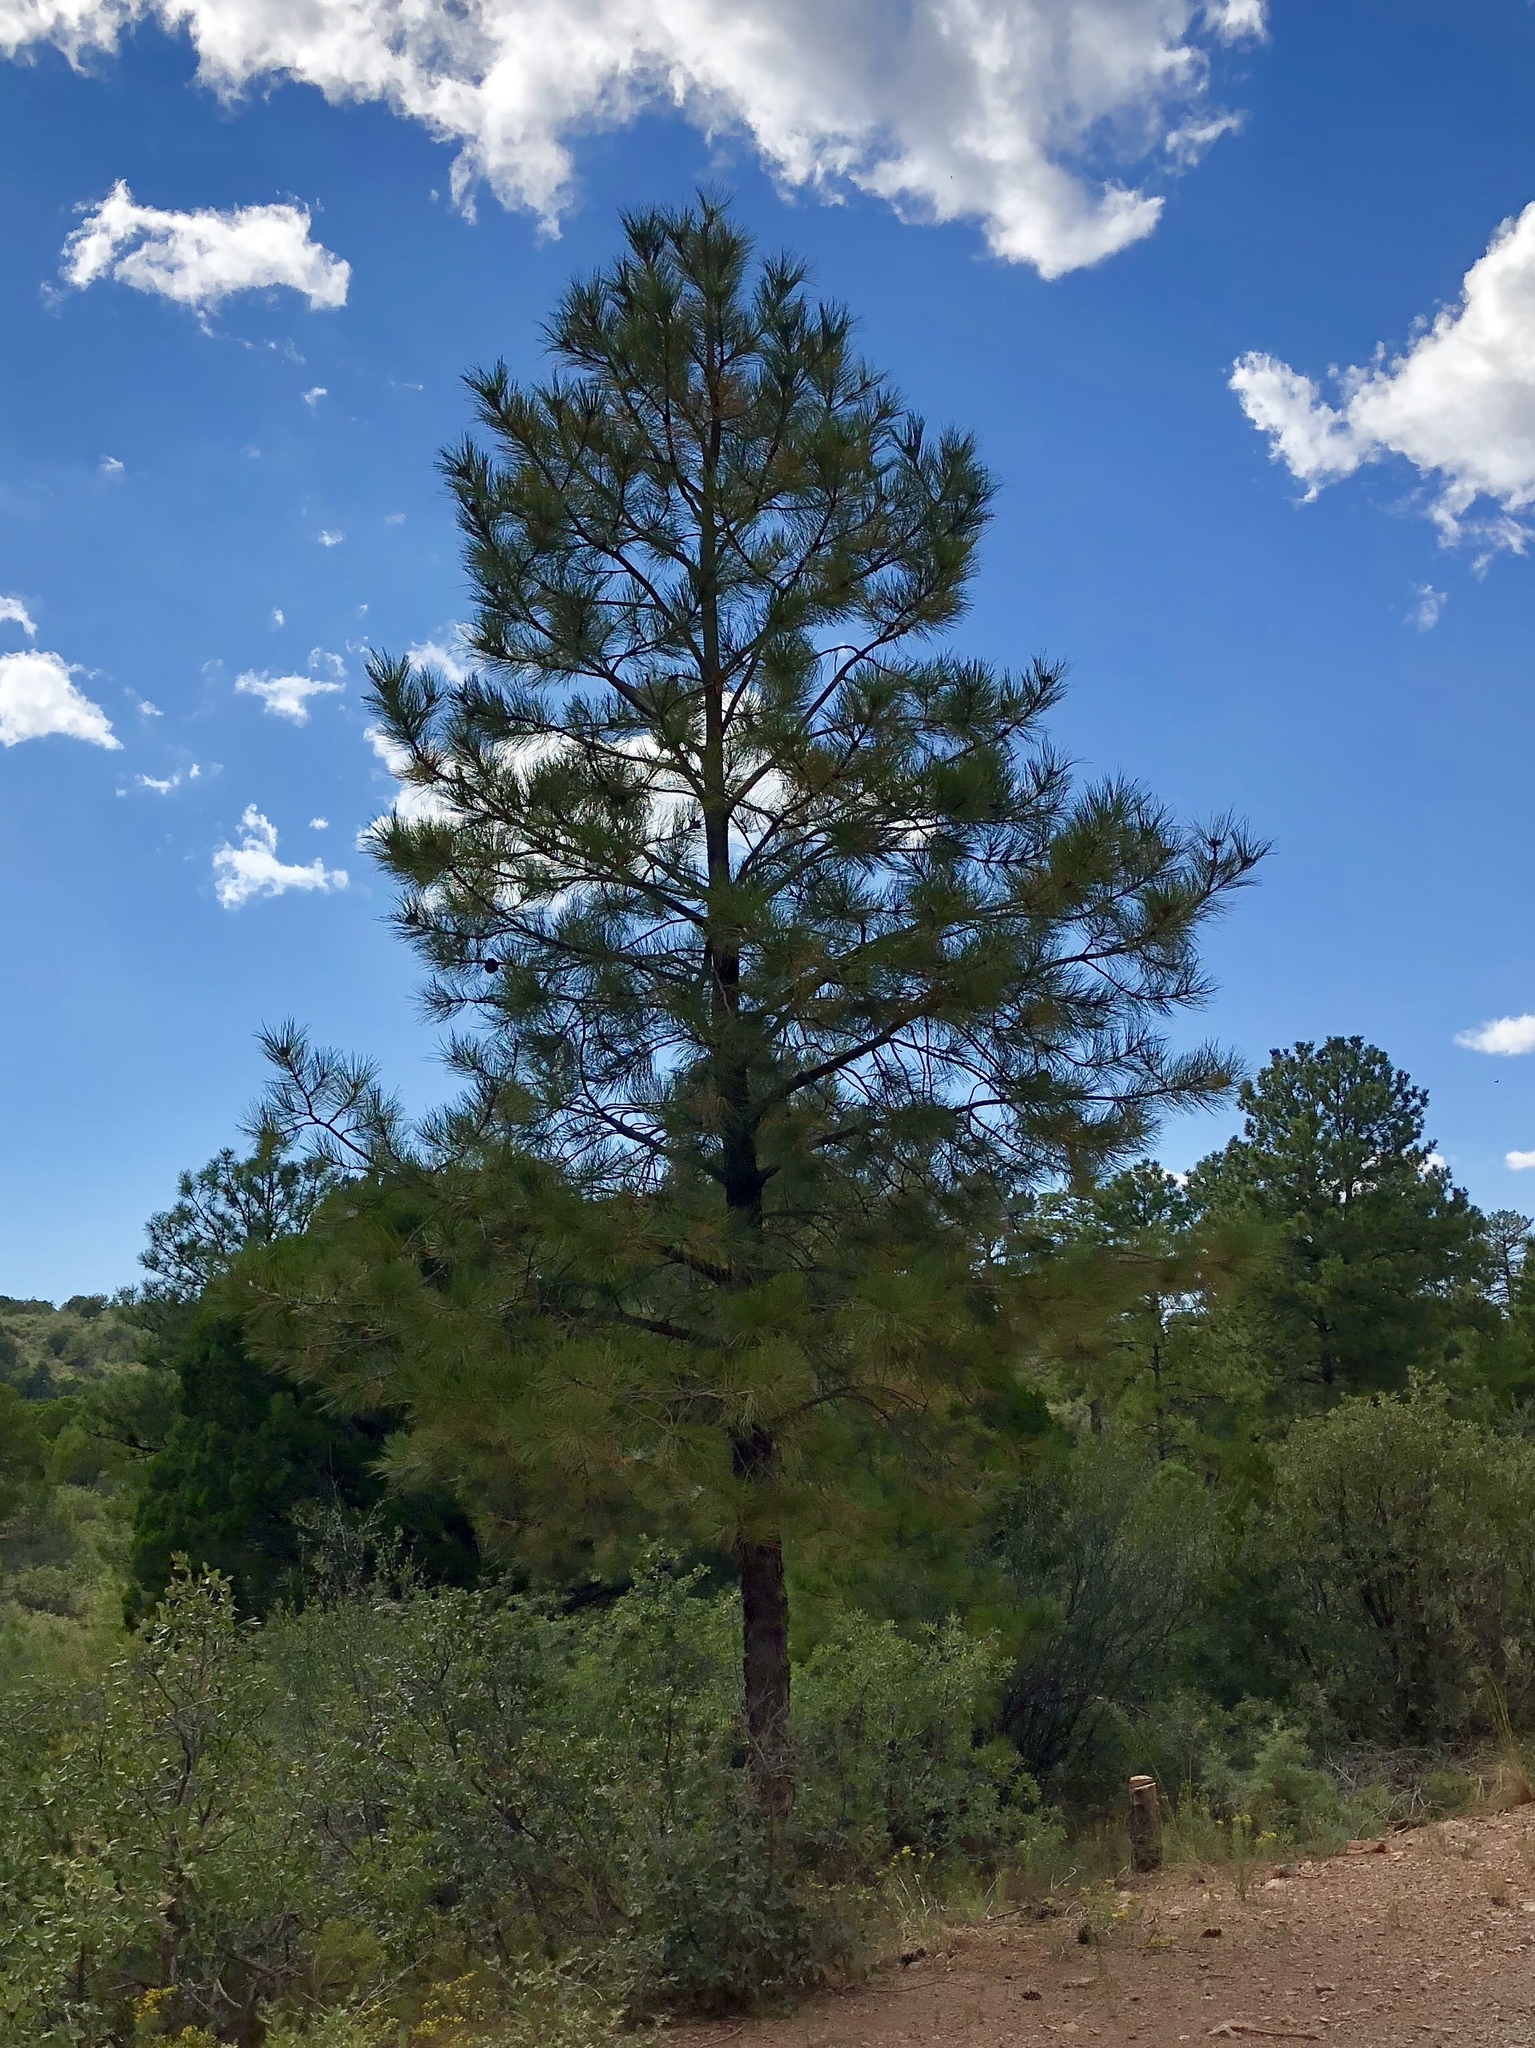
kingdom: Plantae
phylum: Tracheophyta
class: Pinopsida
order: Pinales
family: Pinaceae
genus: Pinus
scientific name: Pinus ponderosa
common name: Western yellow-pine
